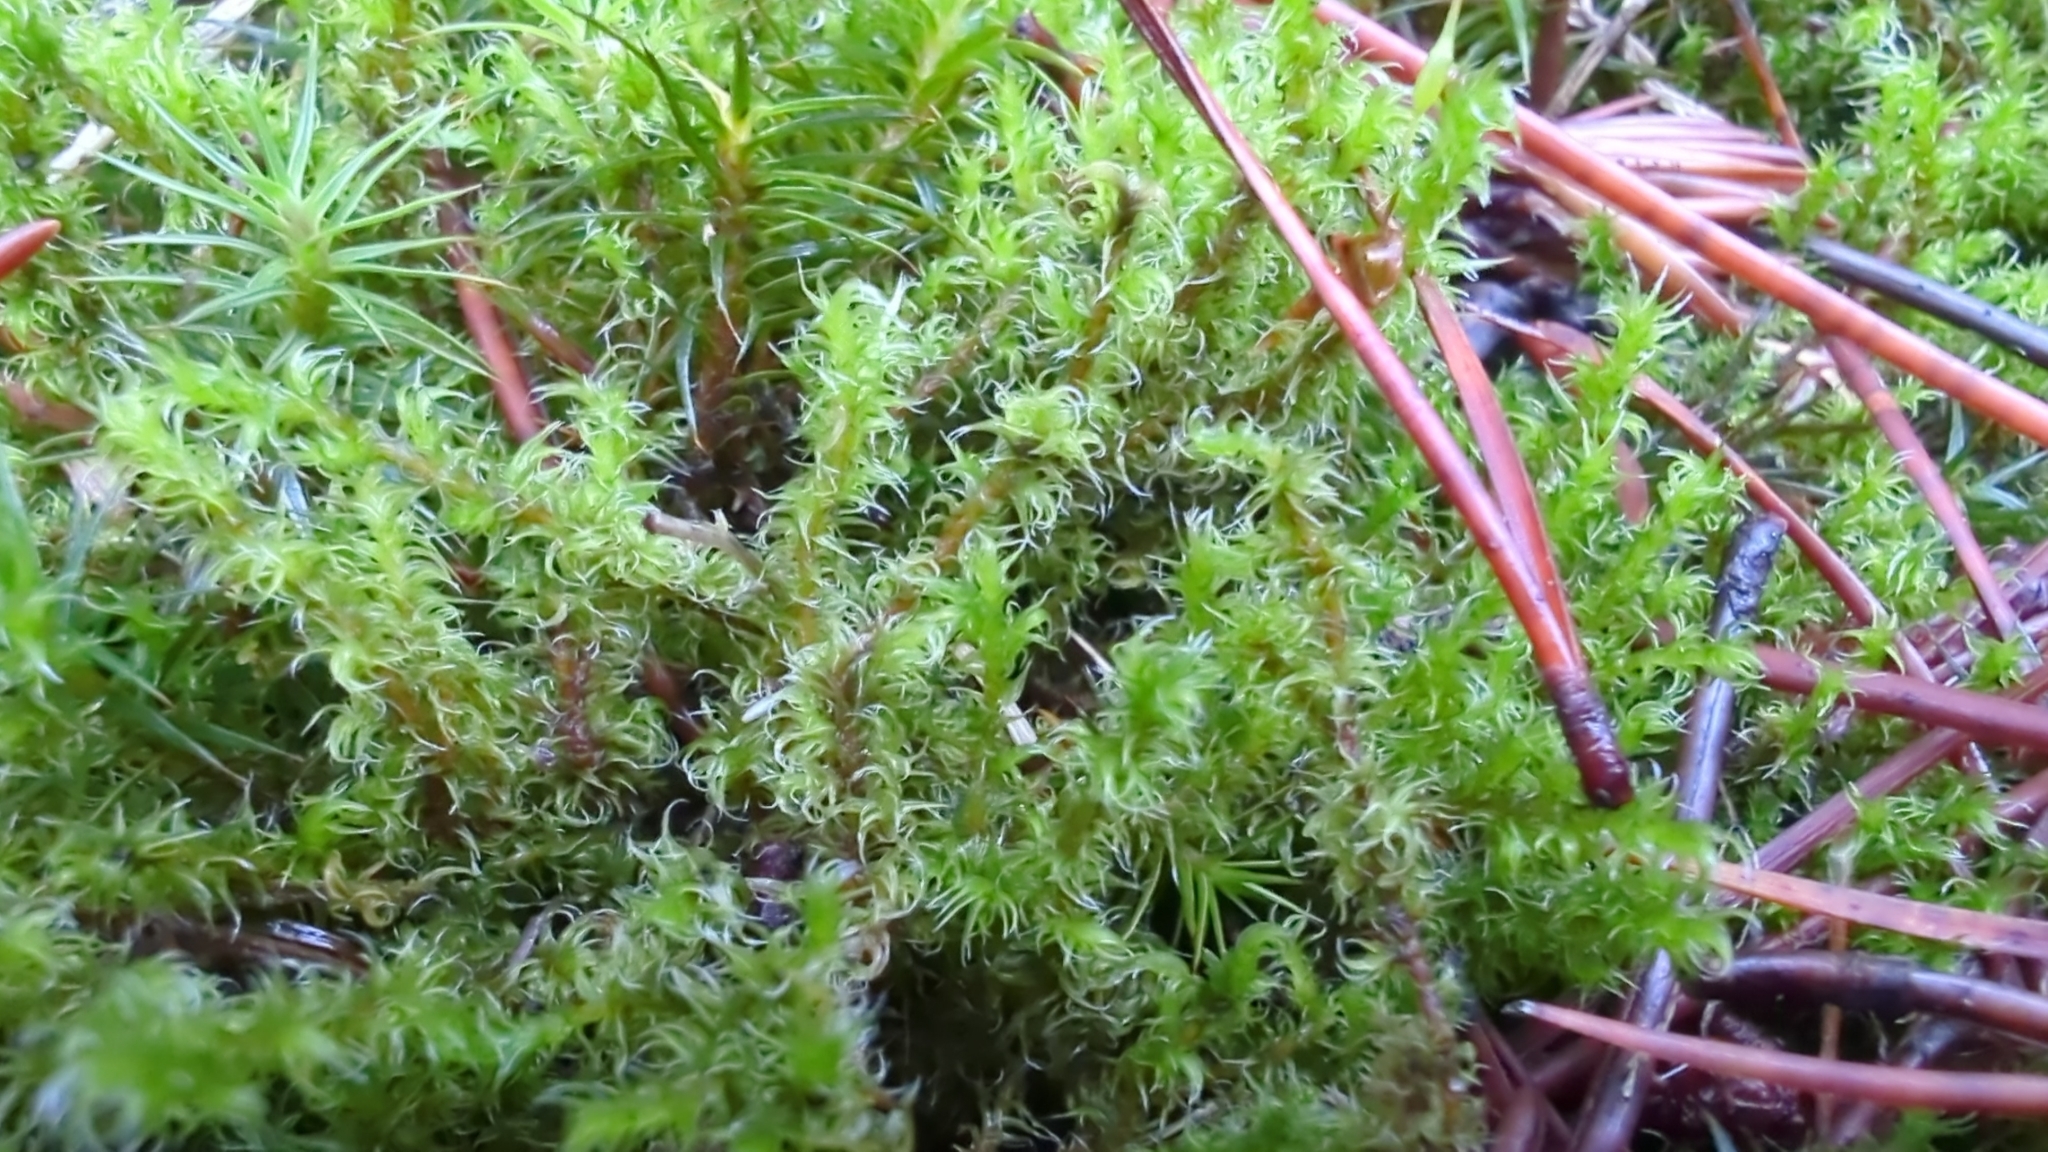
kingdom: Plantae
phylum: Bryophyta
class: Bryopsida
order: Grimmiales
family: Grimmiaceae
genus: Niphotrichum
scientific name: Niphotrichum elongatum
